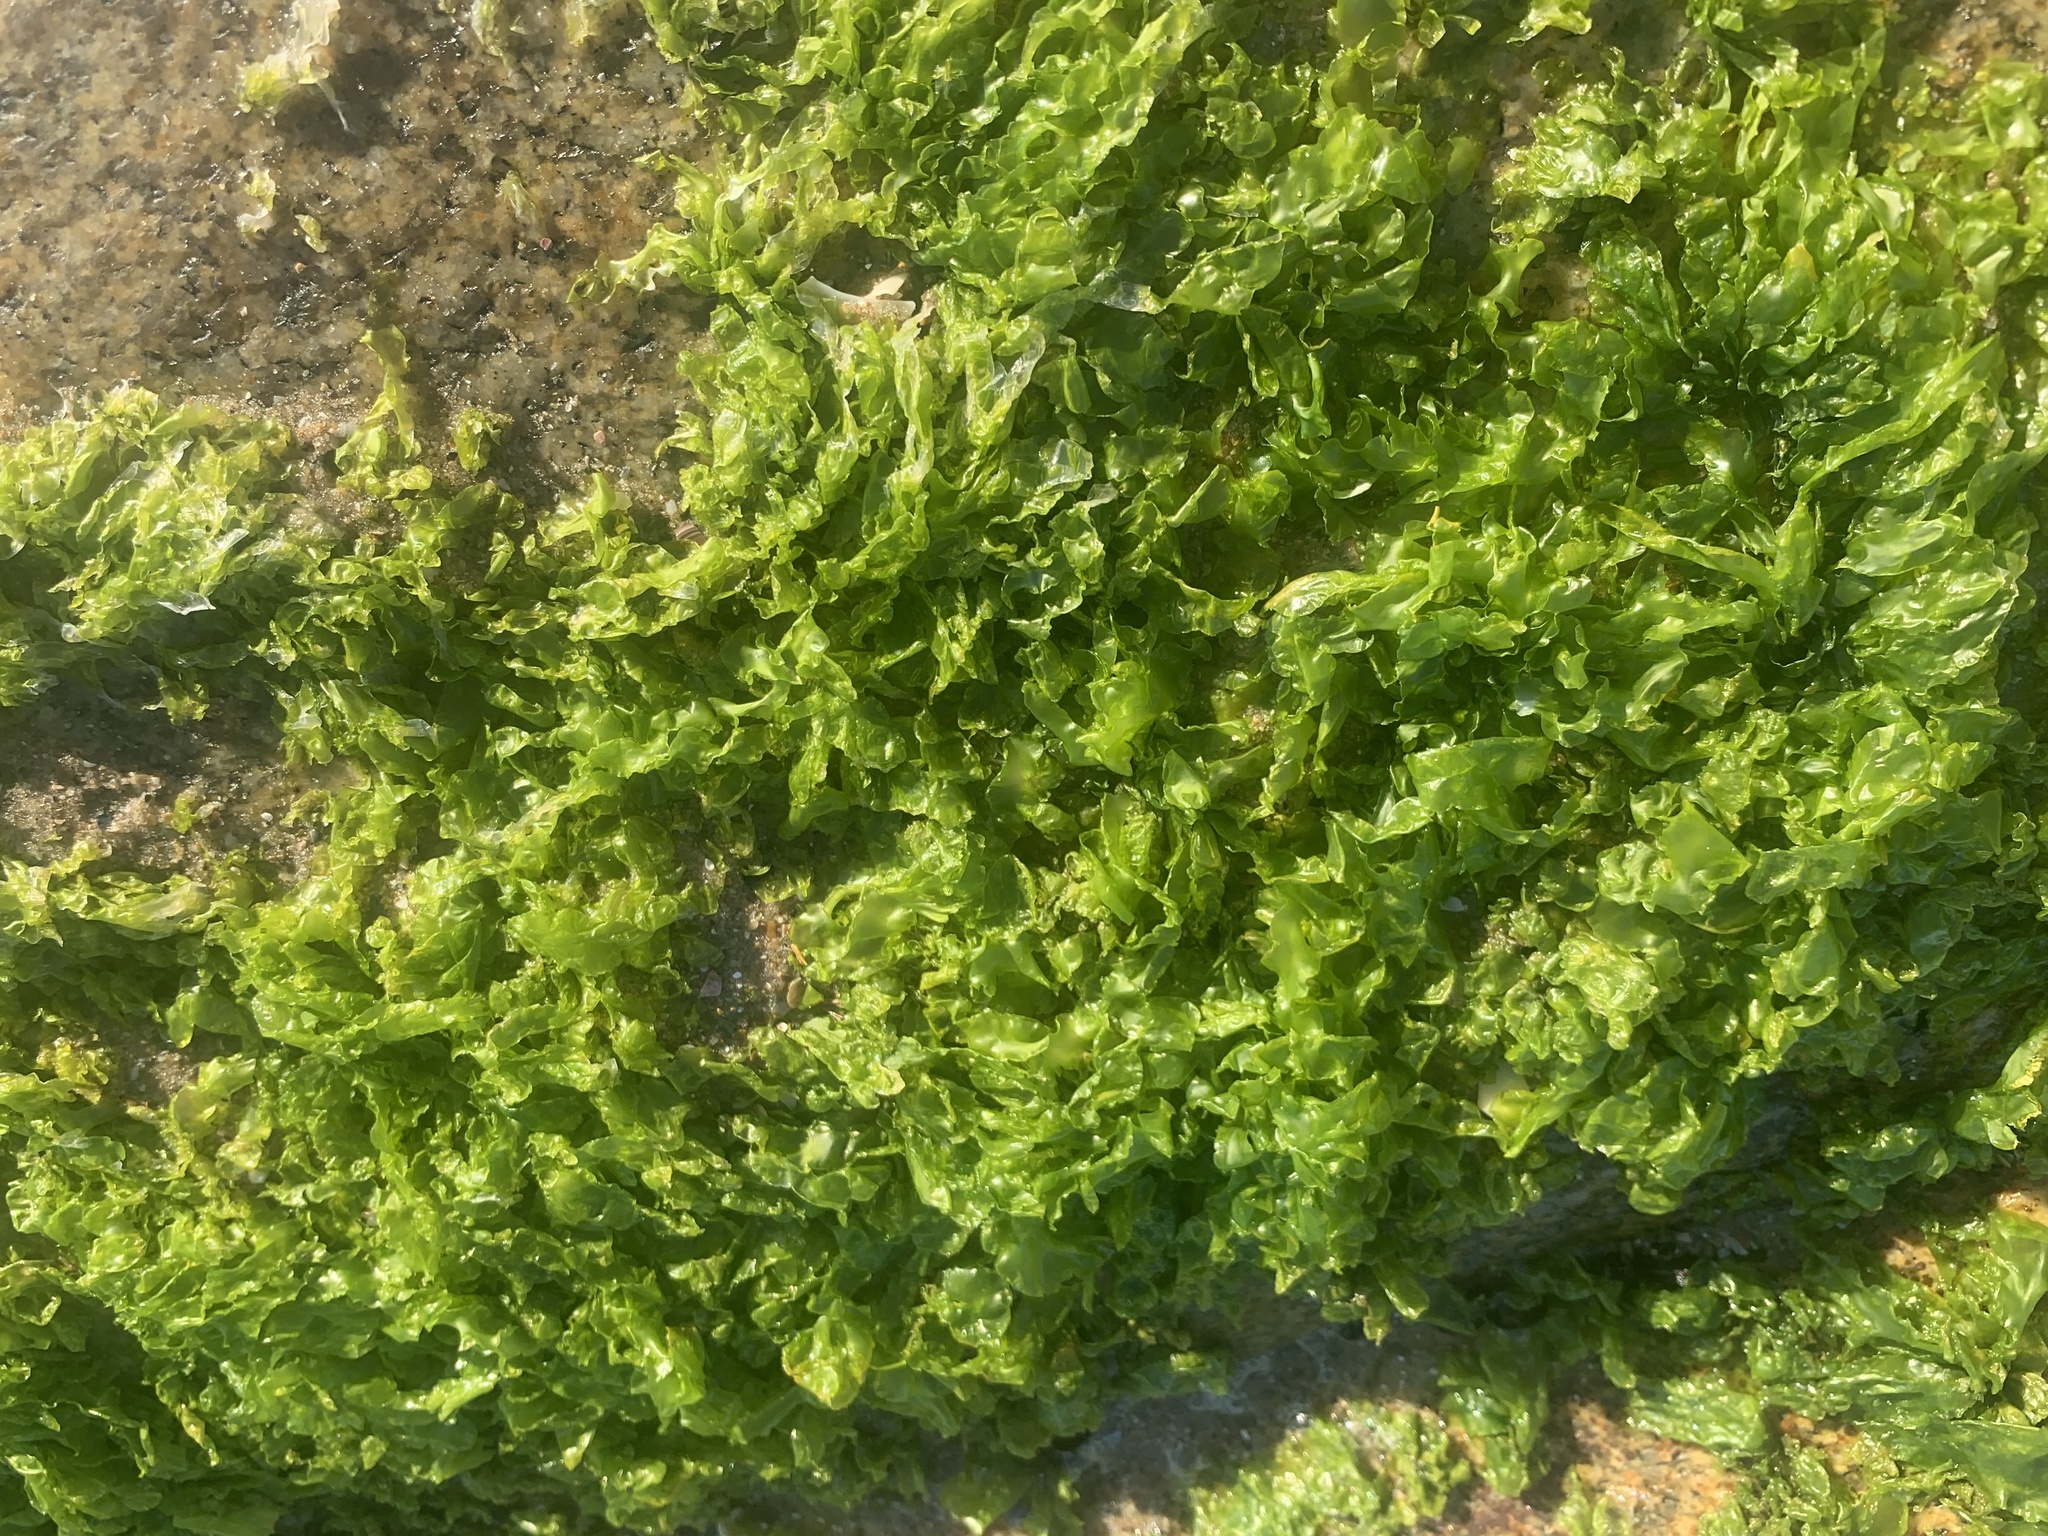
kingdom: Plantae
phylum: Chlorophyta
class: Ulvophyceae
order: Ulvales
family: Ulvaceae
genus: Ulva
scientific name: Ulva lactuca
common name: Sea lettuce
